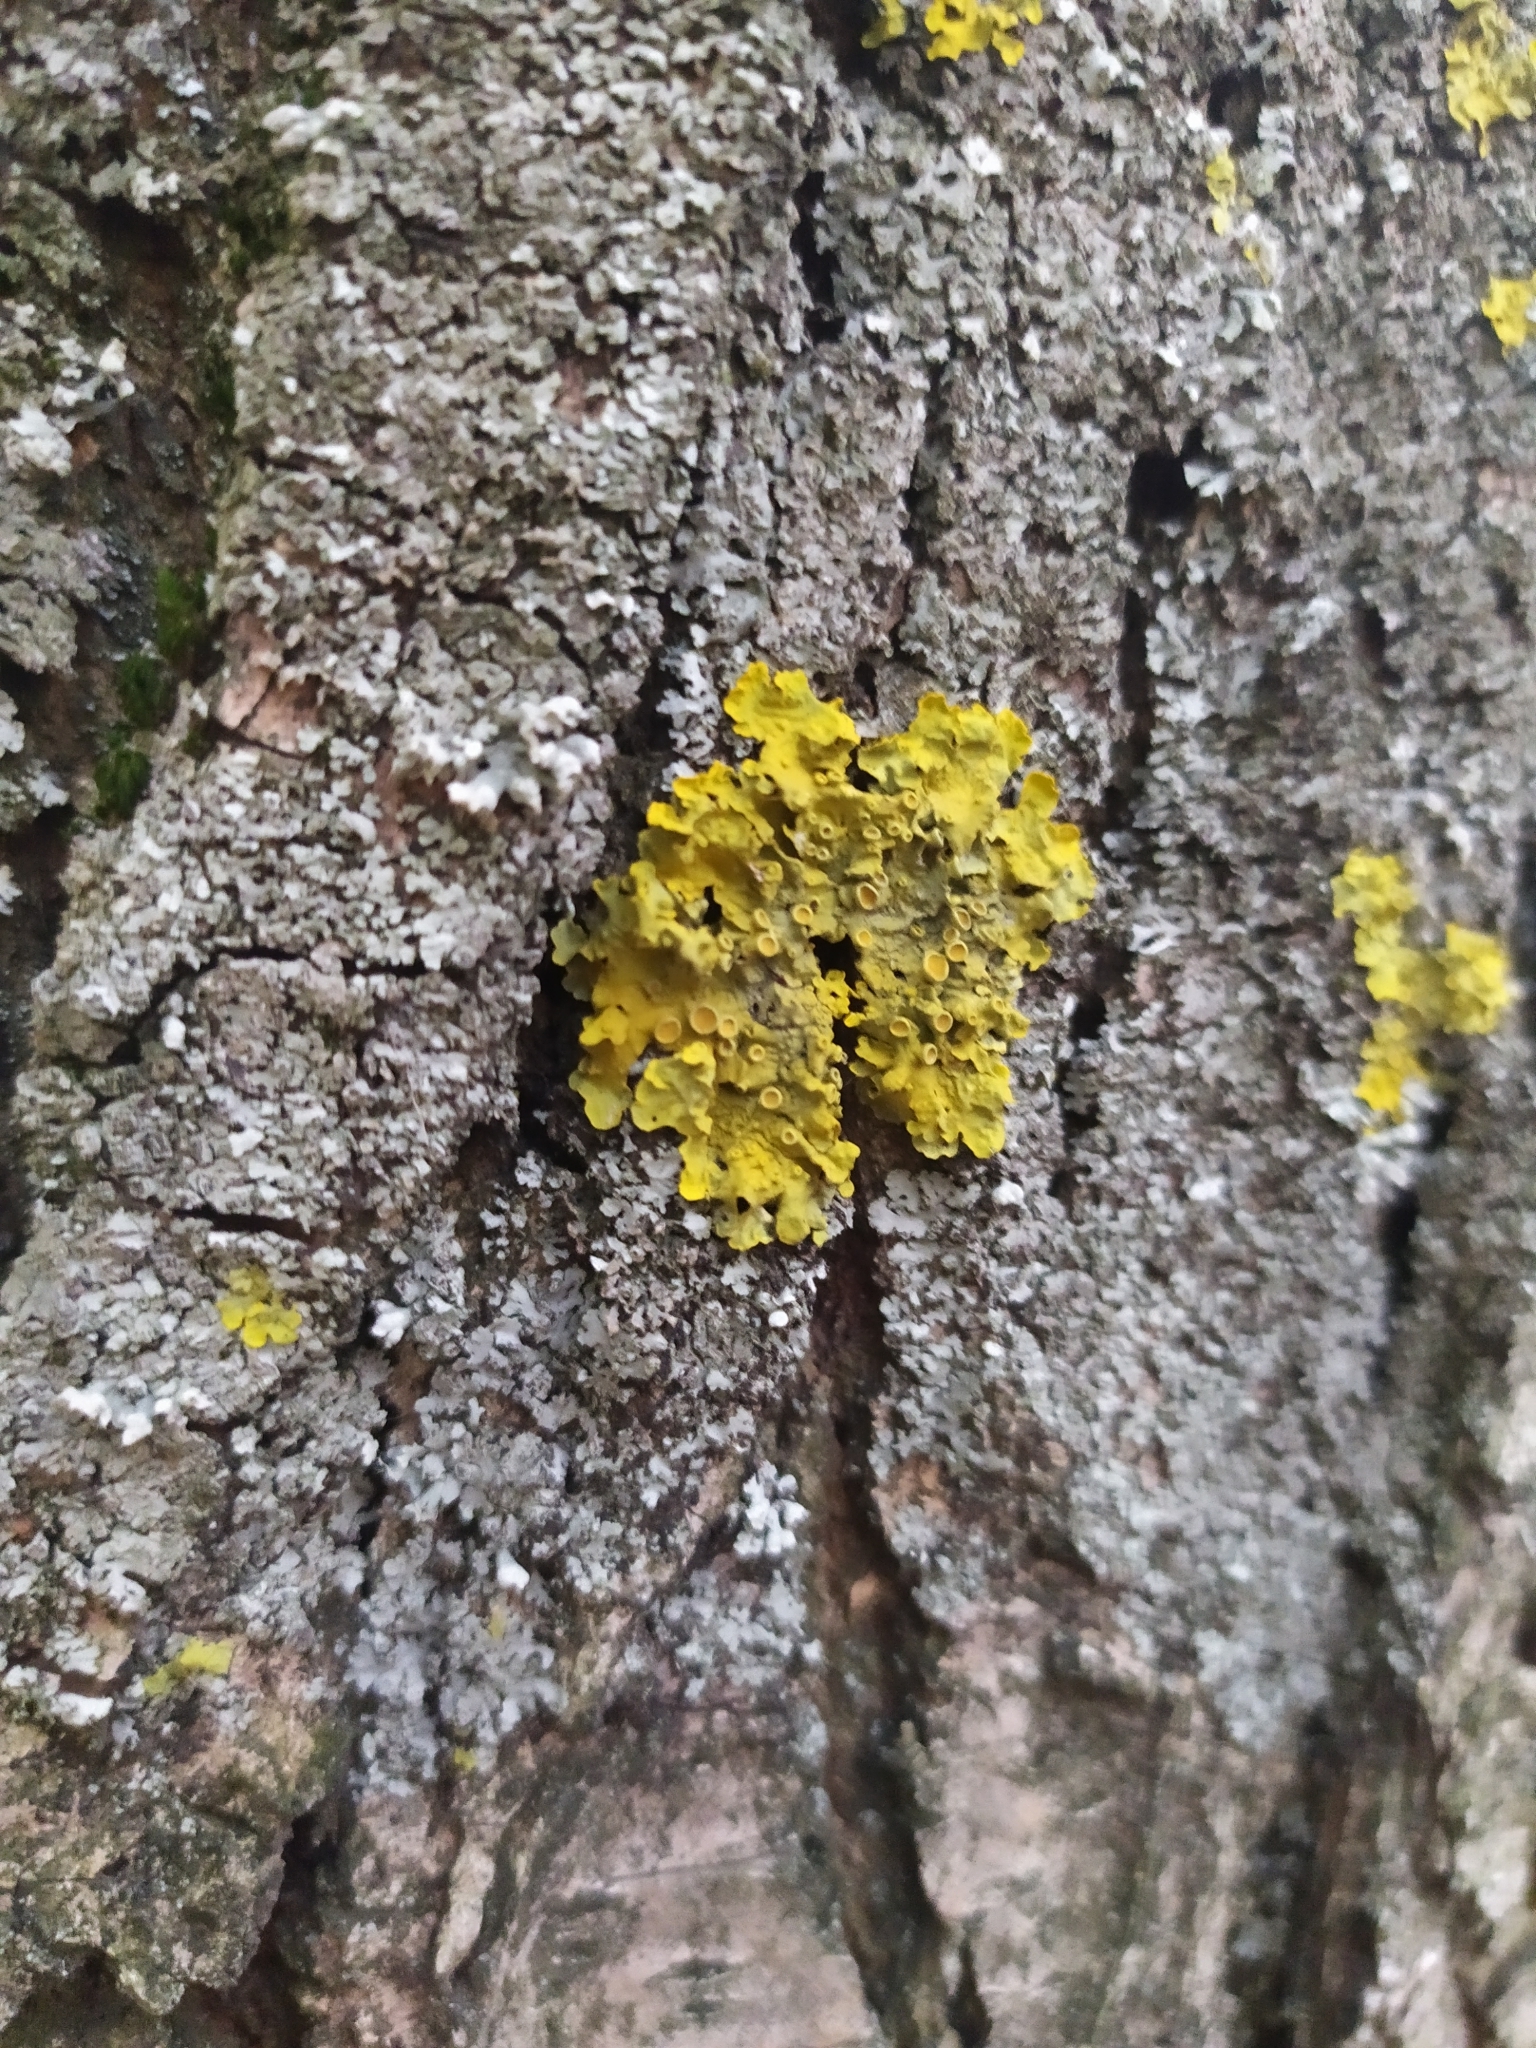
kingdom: Fungi
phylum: Ascomycota
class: Lecanoromycetes
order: Teloschistales
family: Teloschistaceae
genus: Xanthoria
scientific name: Xanthoria parietina
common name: Common orange lichen
